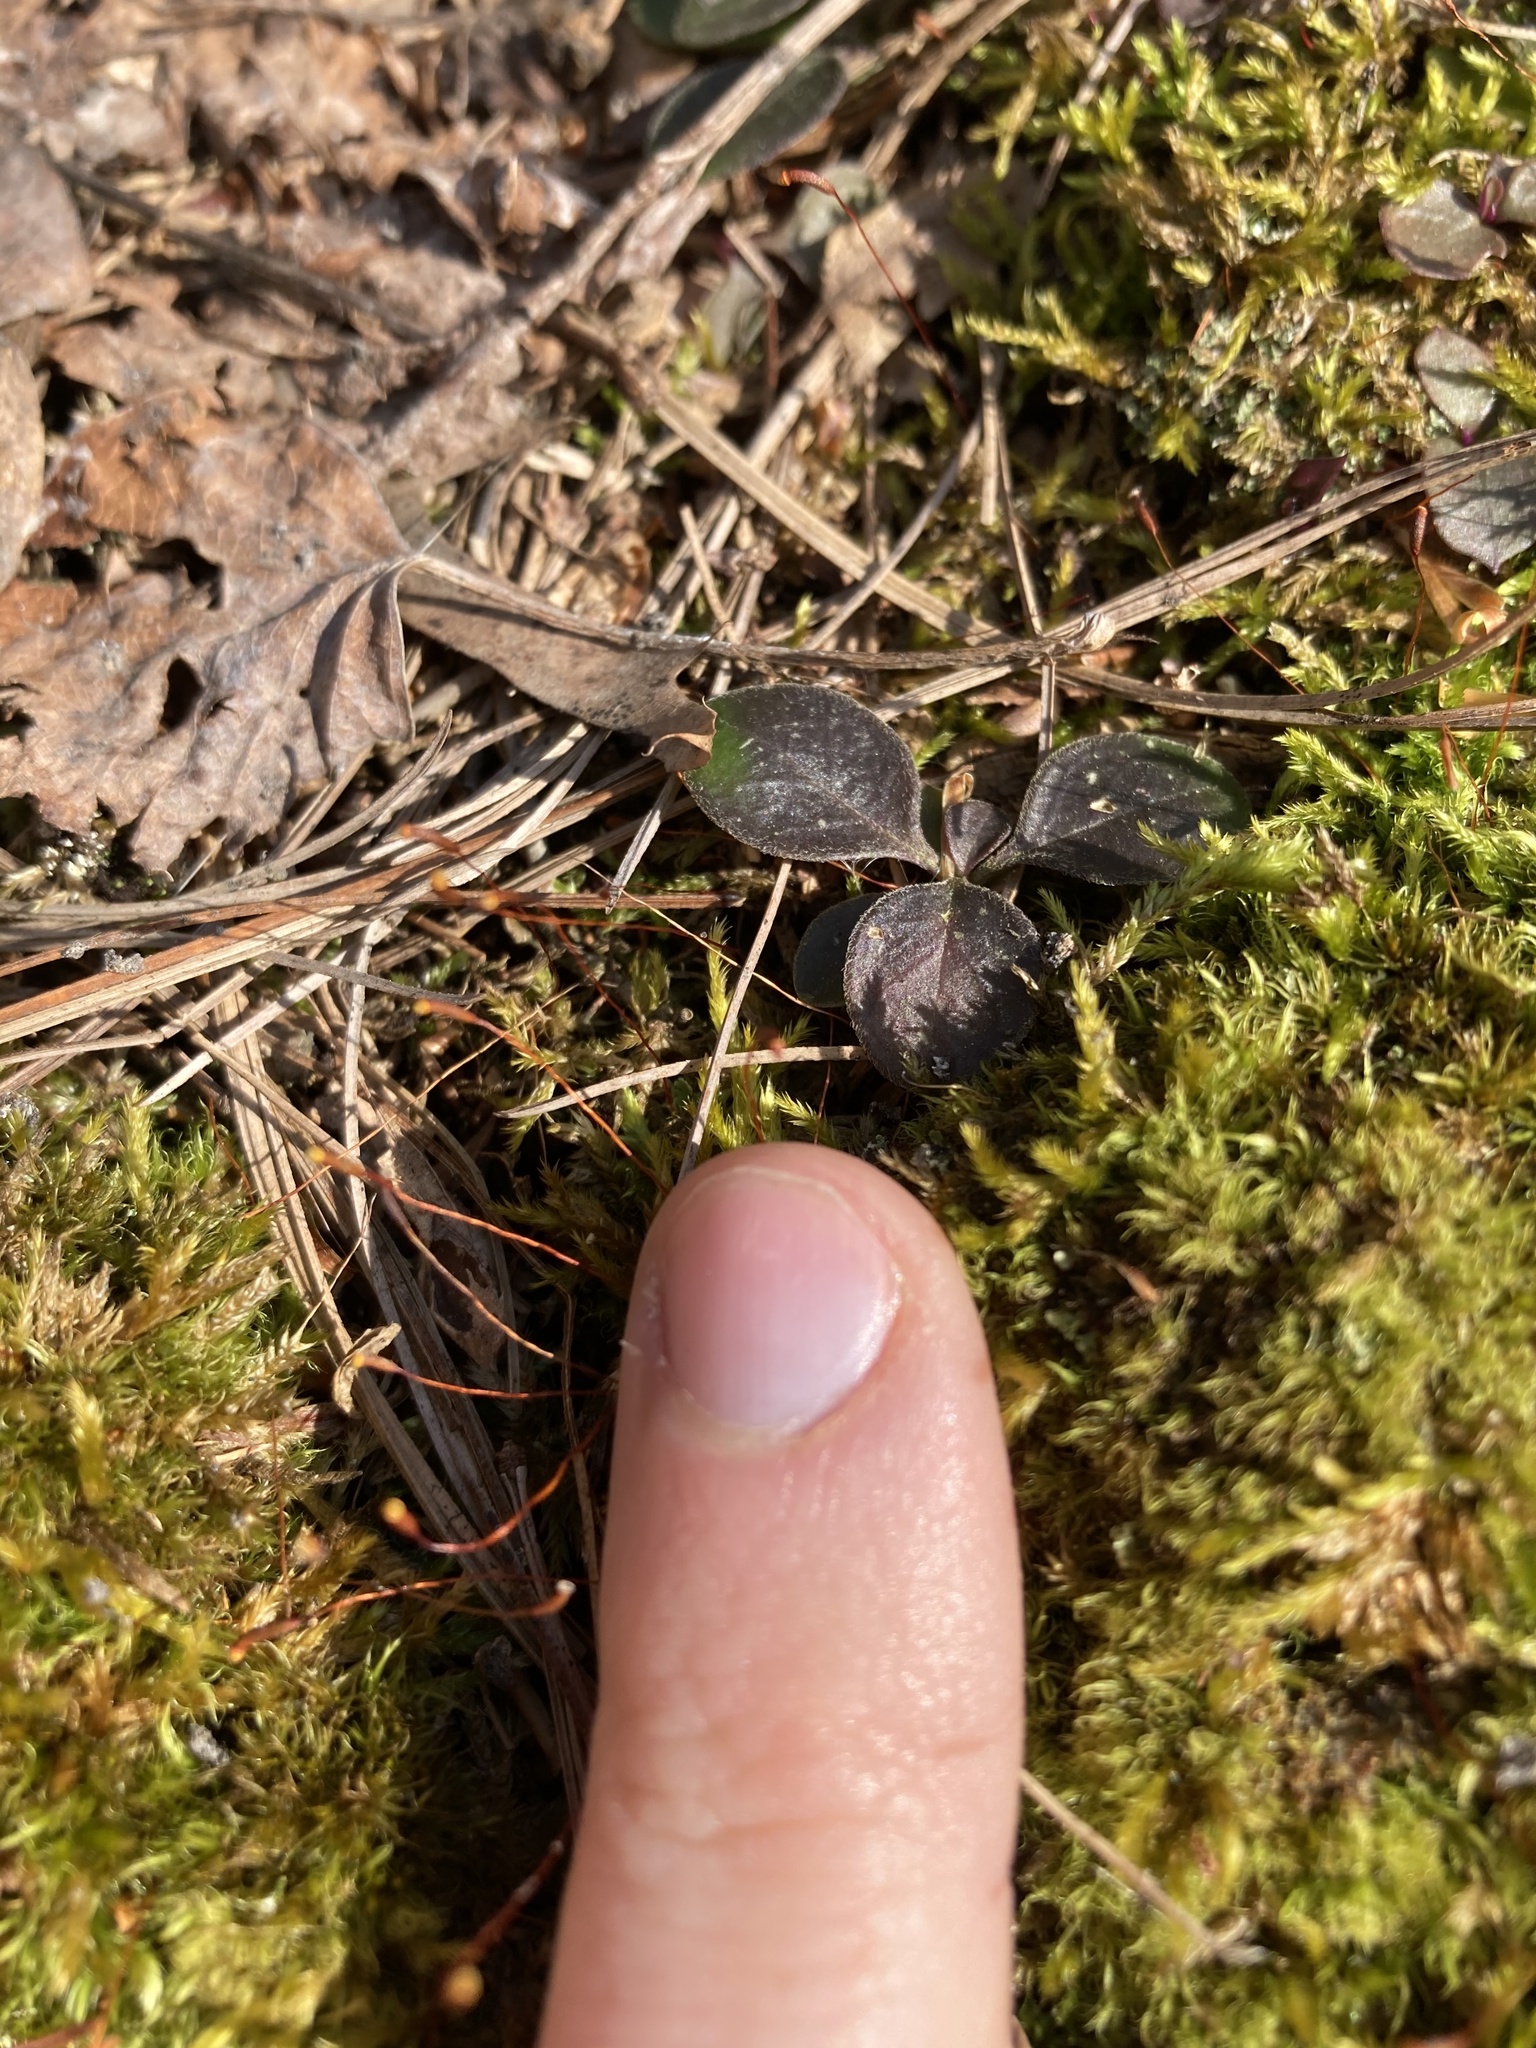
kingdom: Plantae
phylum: Tracheophyta
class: Magnoliopsida
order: Fabales
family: Polygalaceae
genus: Polygaloides
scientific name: Polygaloides paucifolia
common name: Bird-on-the-wing
